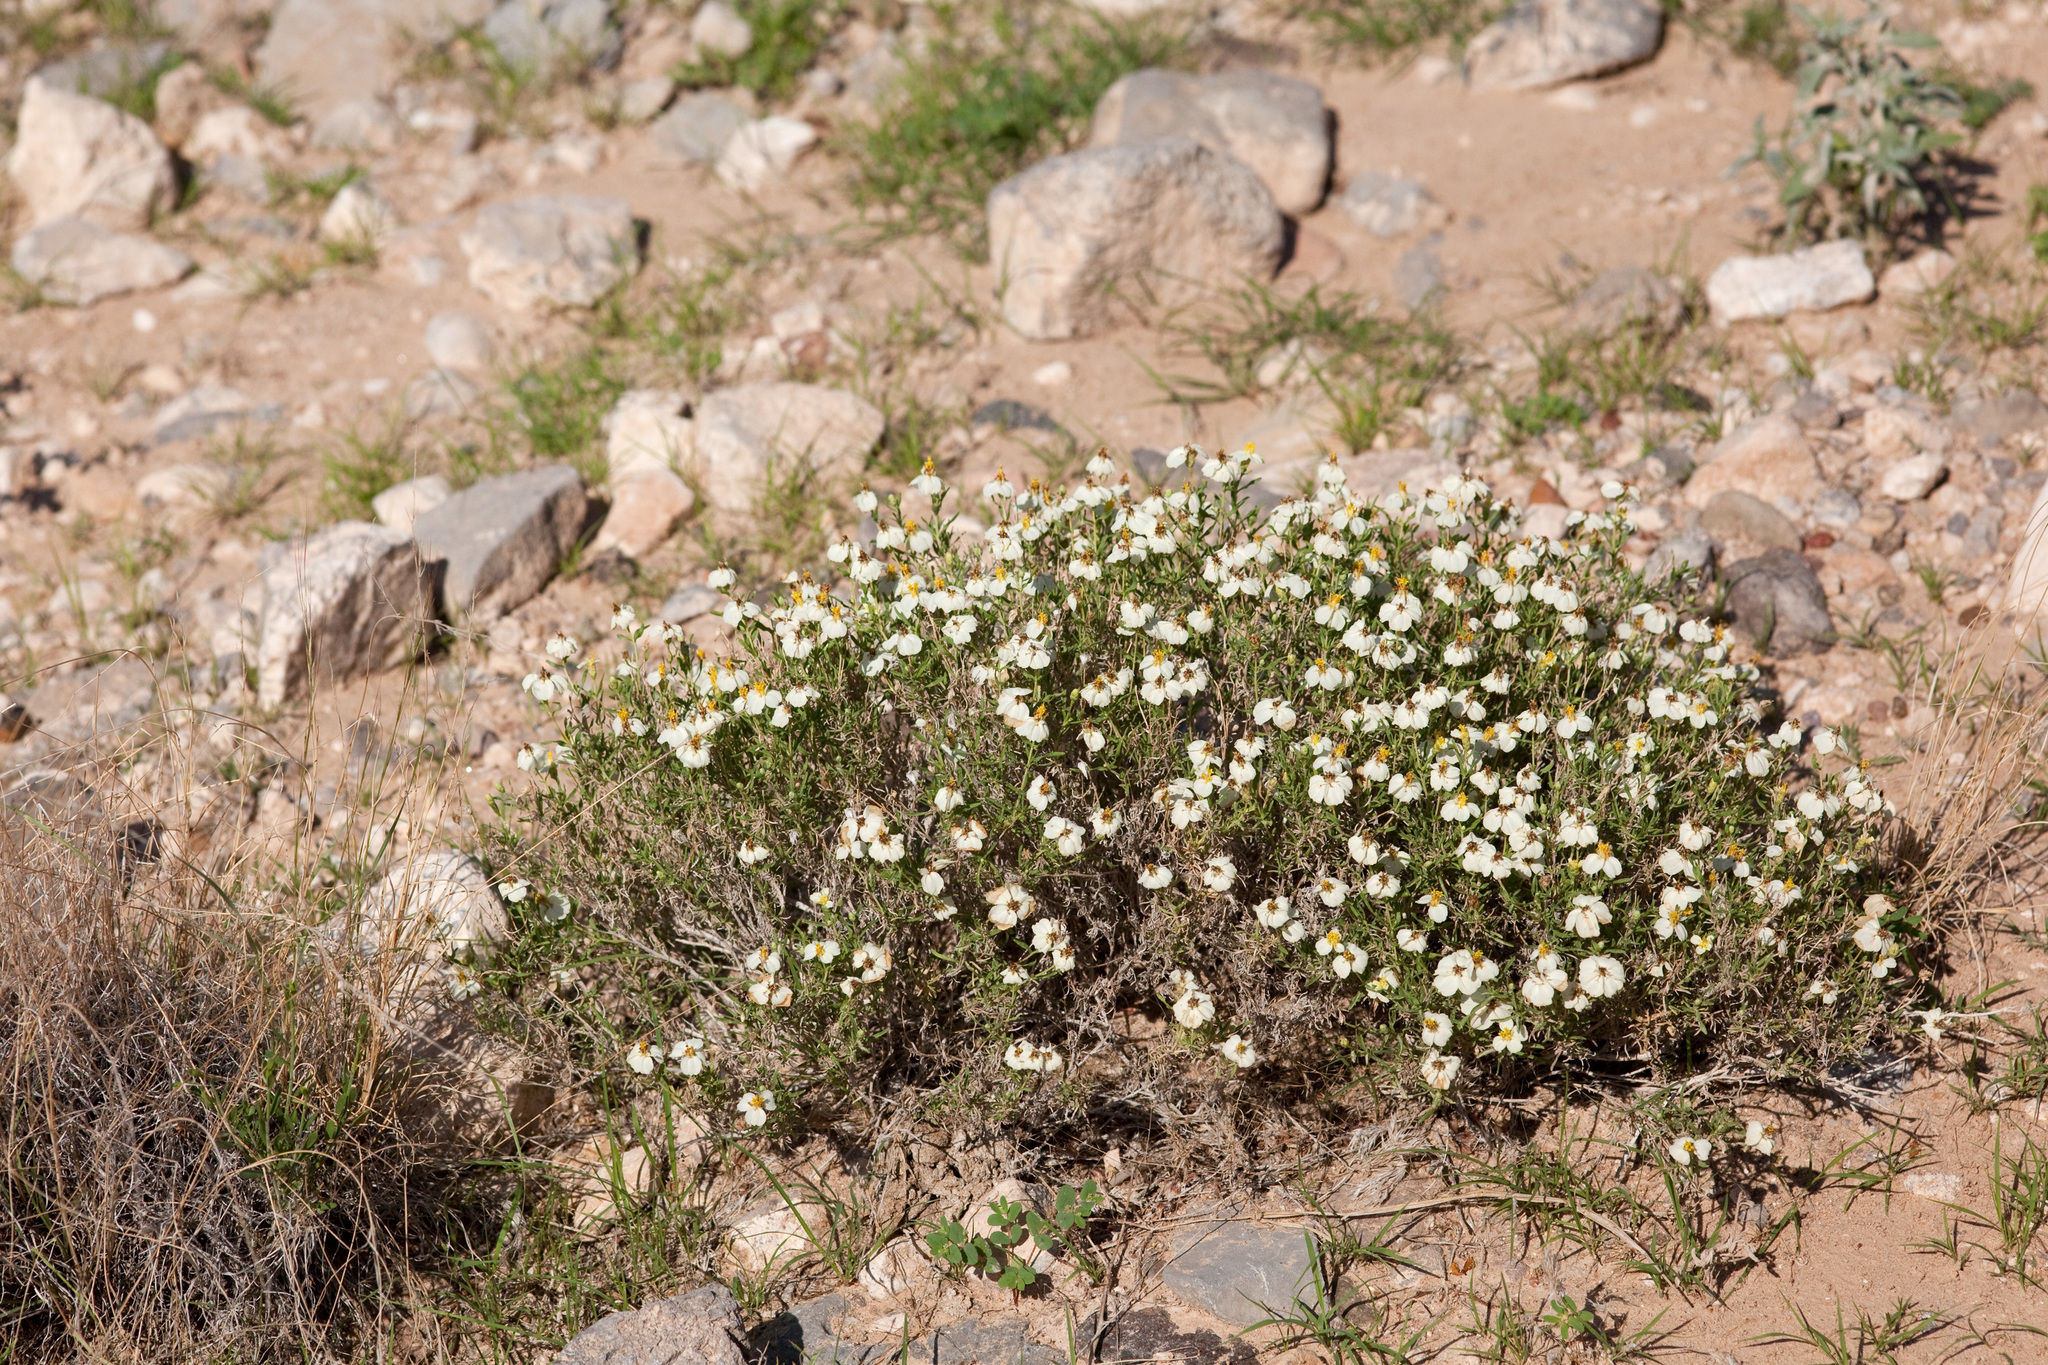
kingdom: Plantae
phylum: Tracheophyta
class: Magnoliopsida
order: Asterales
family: Asteraceae
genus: Zinnia
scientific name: Zinnia acerosa
